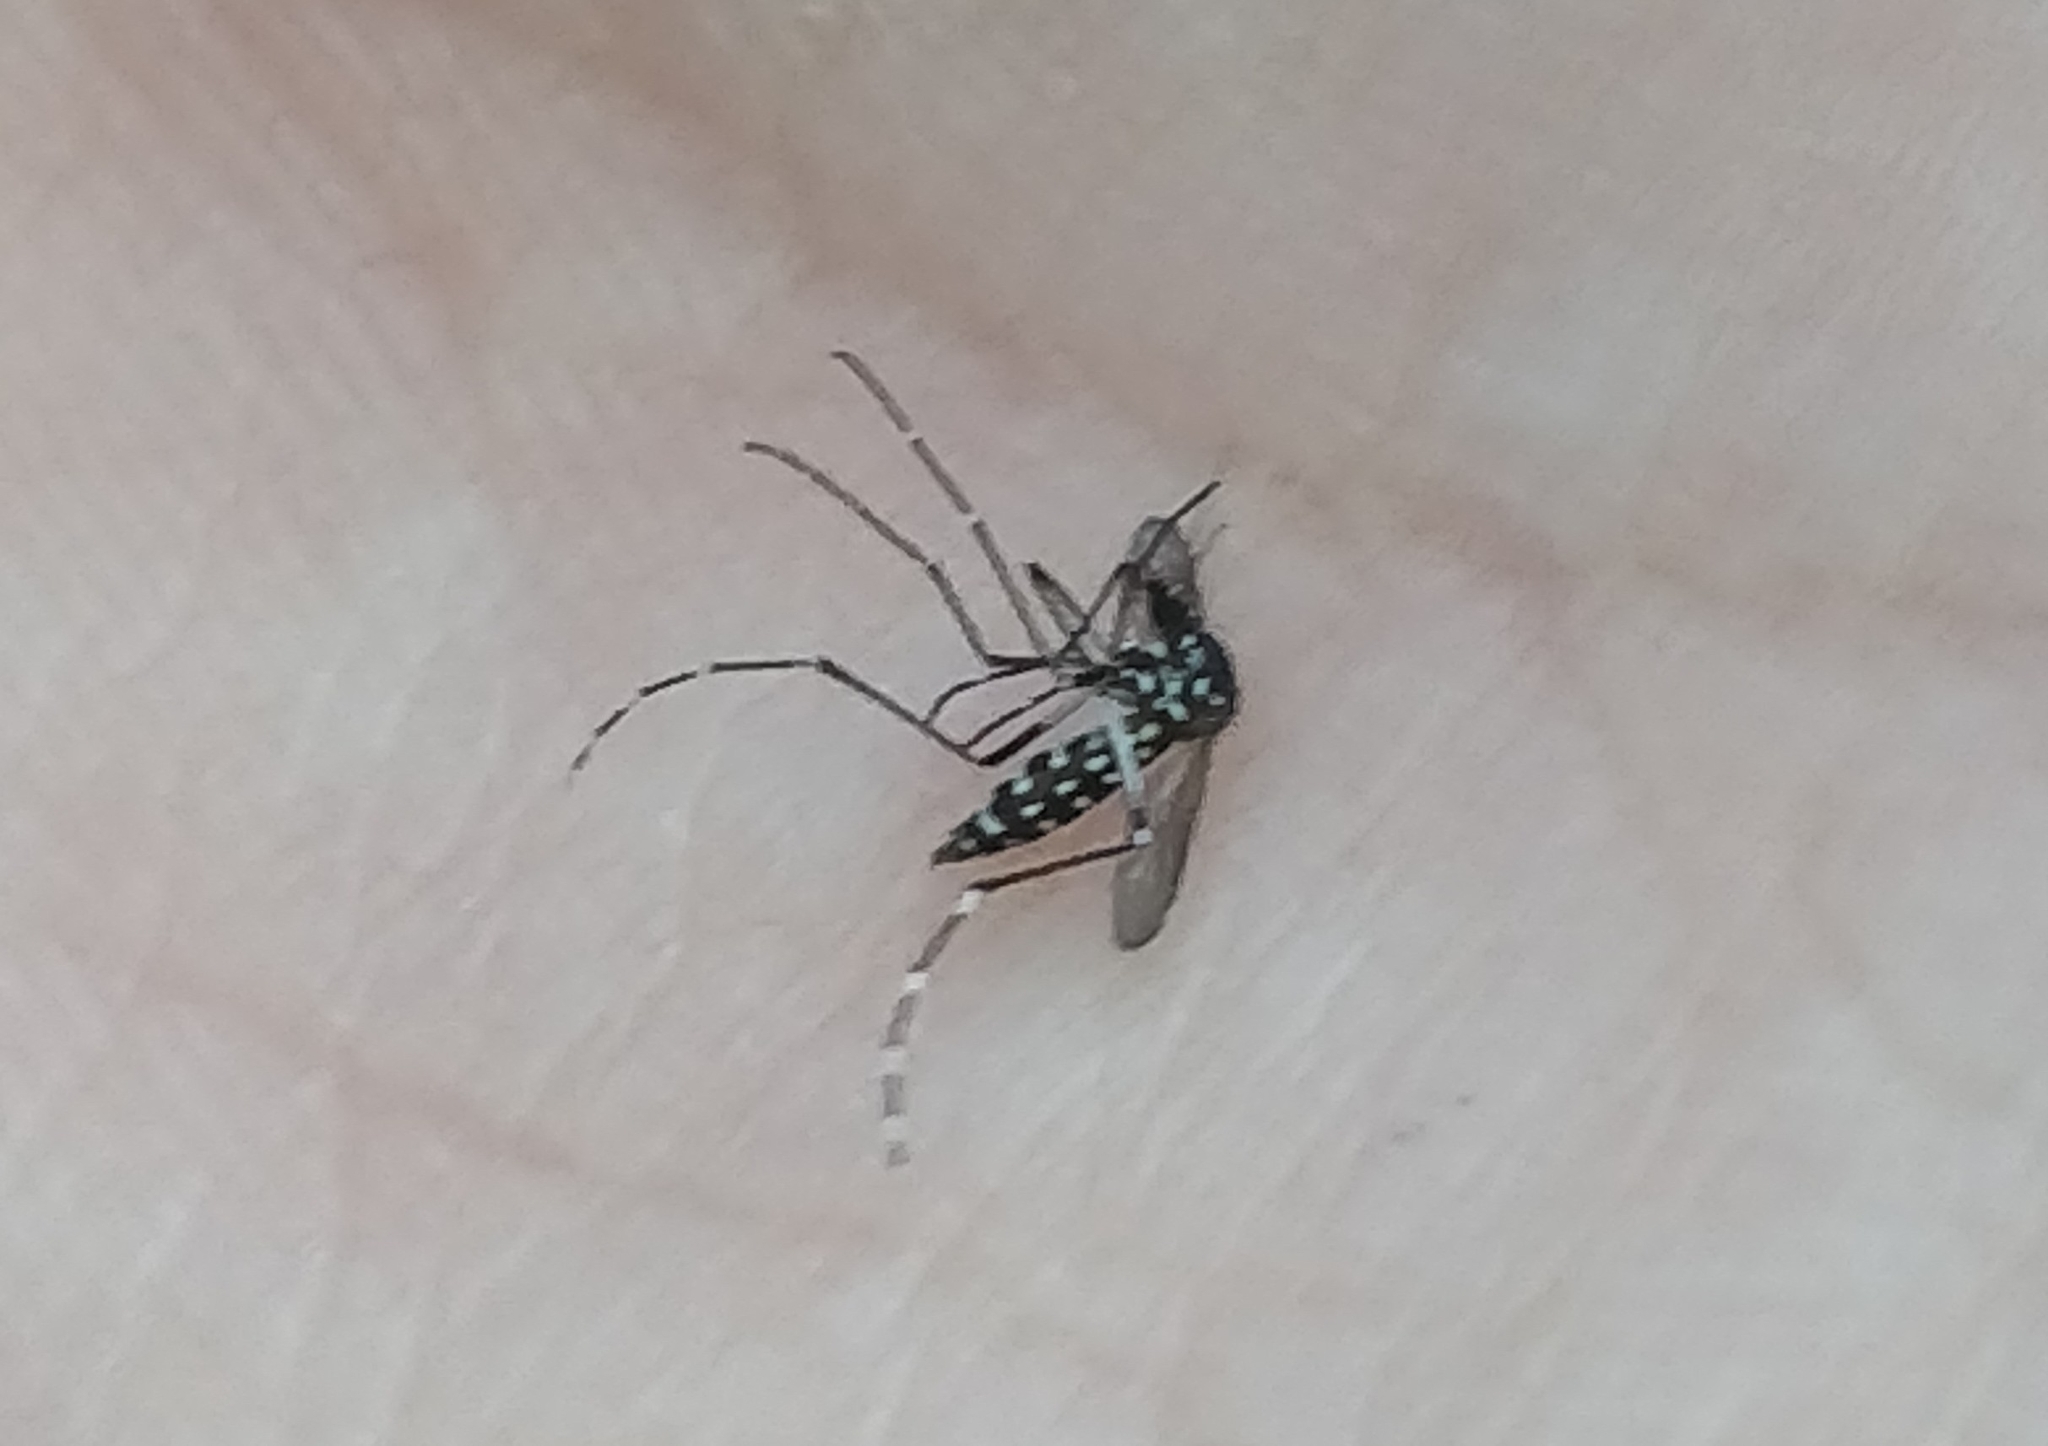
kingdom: Animalia
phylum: Arthropoda
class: Insecta
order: Diptera
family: Culicidae
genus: Aedes
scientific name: Aedes albopictus
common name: Tiger mosquito
